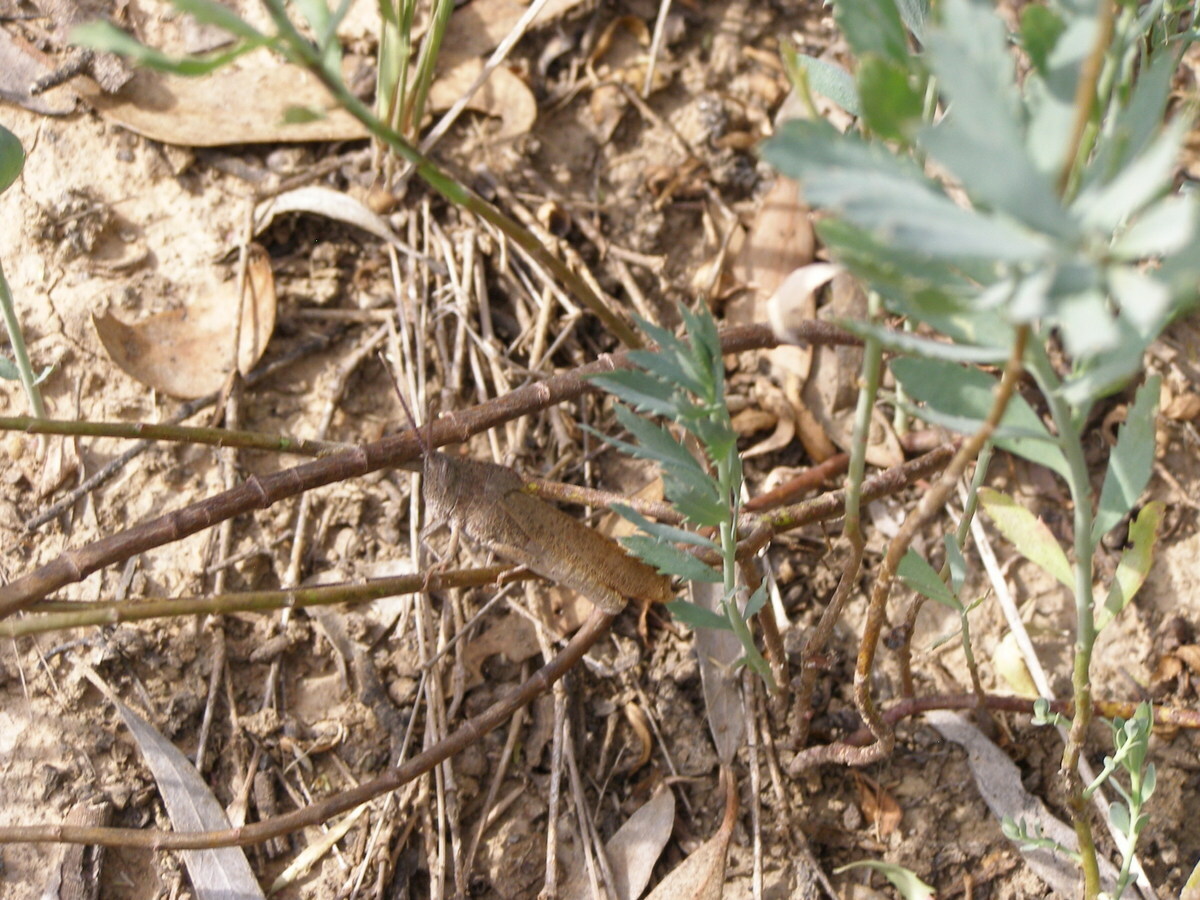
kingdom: Animalia
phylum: Arthropoda
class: Insecta
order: Orthoptera
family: Acrididae
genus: Goniaea
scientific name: Goniaea australasiae
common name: Gumleaf grasshopper
